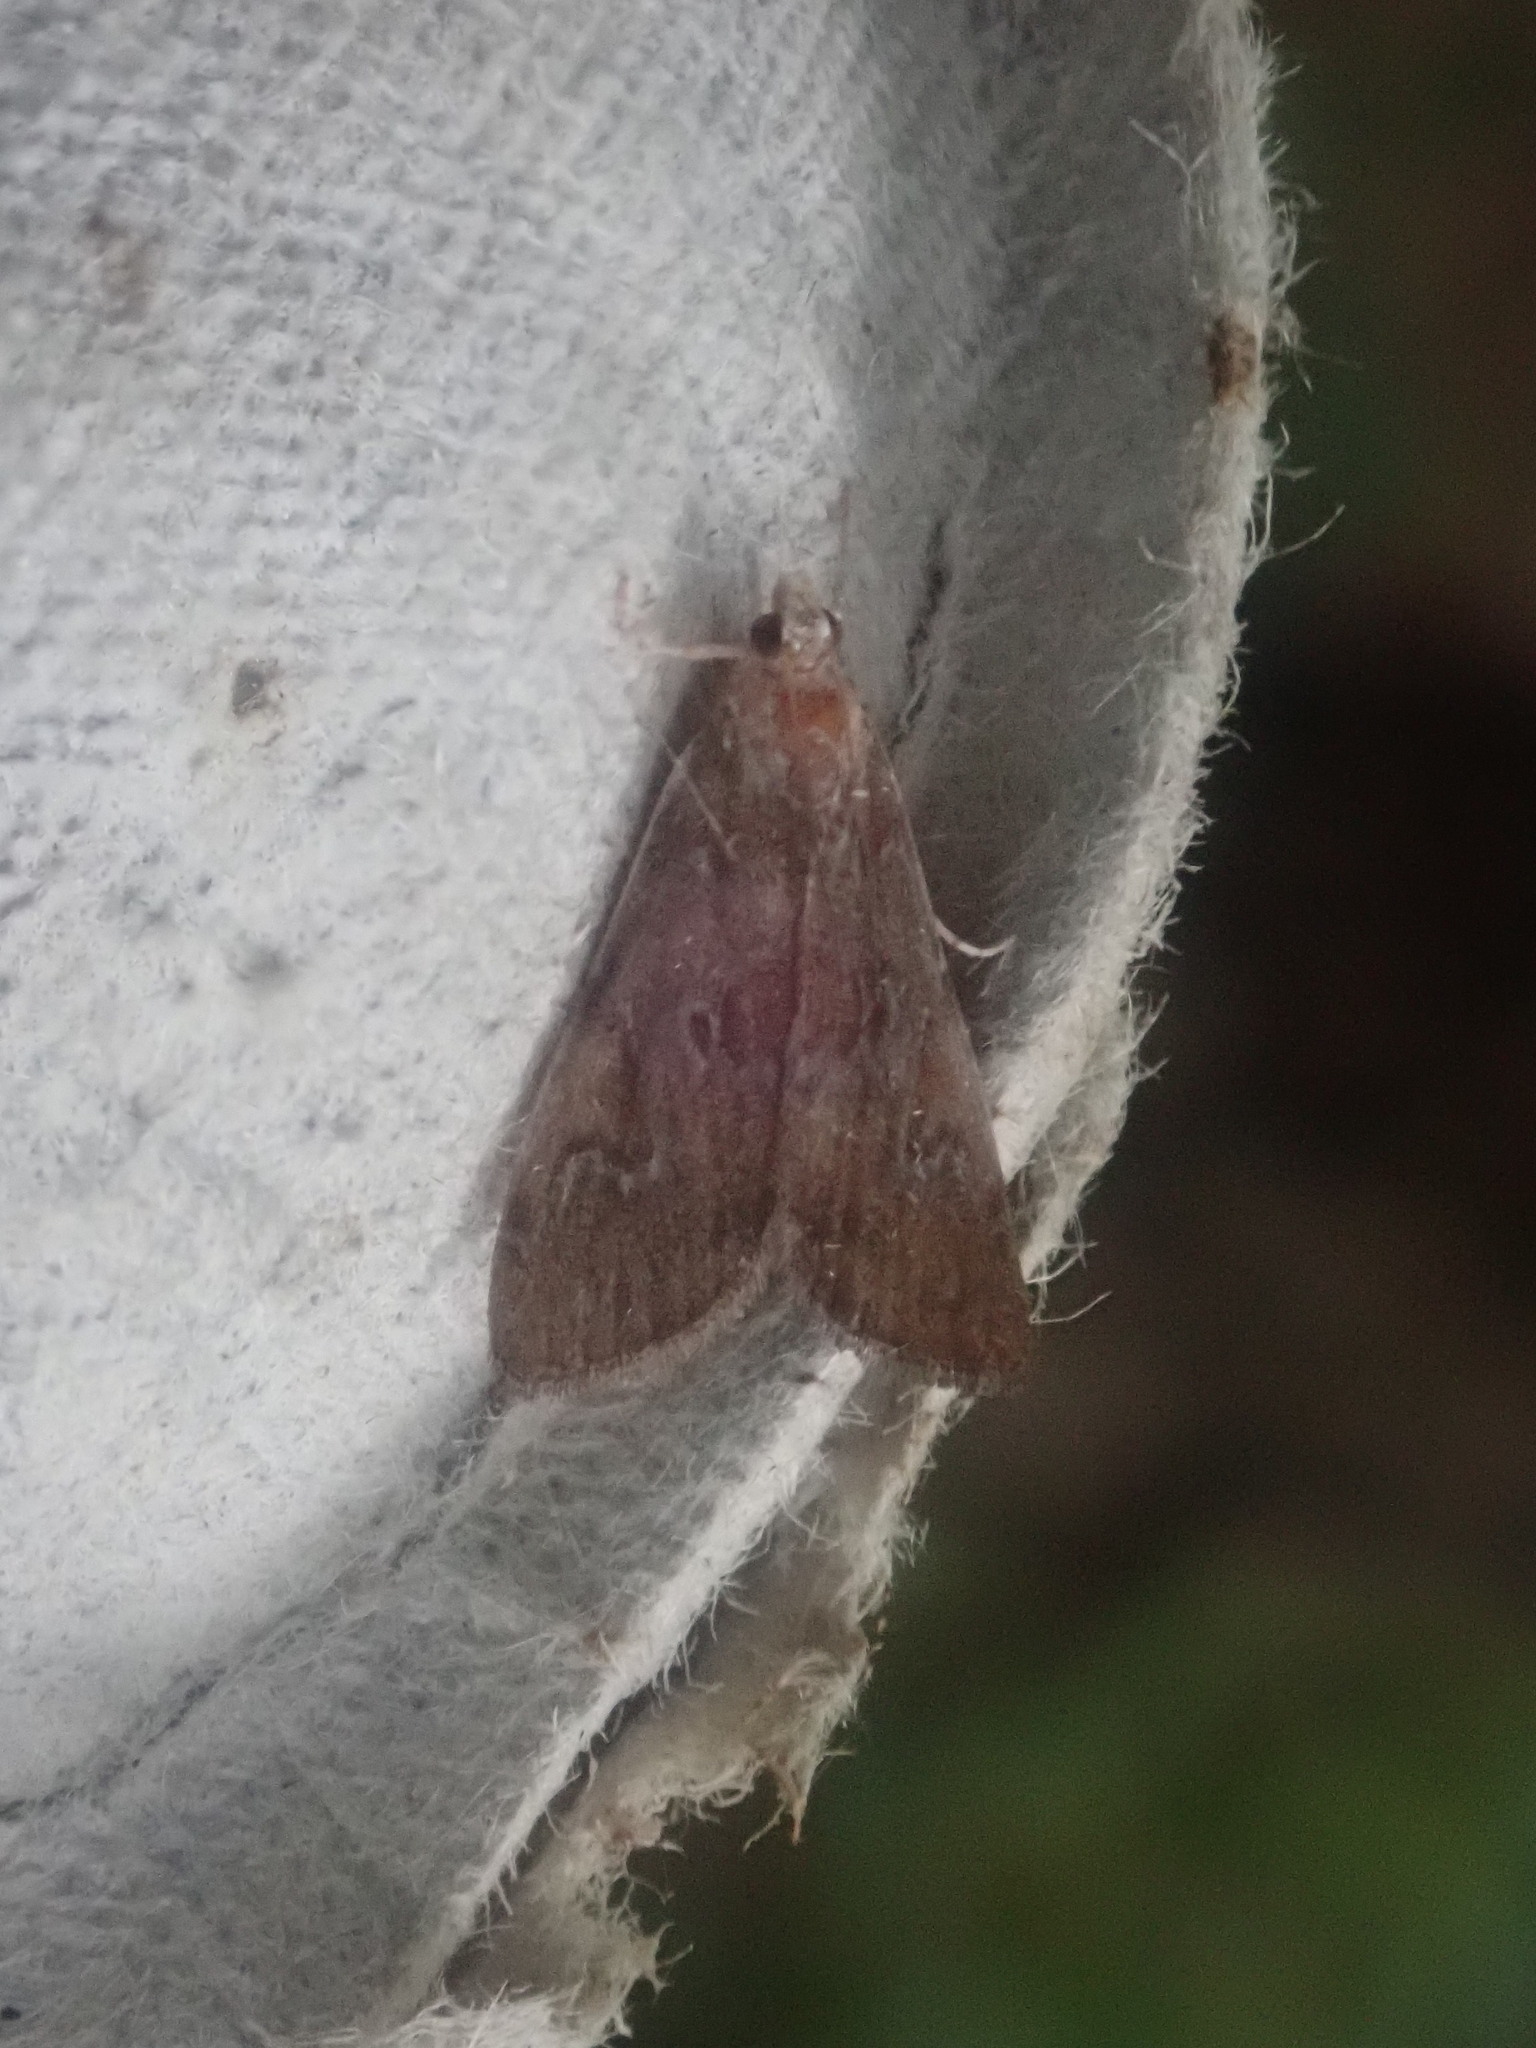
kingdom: Animalia
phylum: Arthropoda
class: Insecta
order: Lepidoptera
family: Crambidae
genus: Elophila
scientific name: Elophila gyralis
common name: Waterlily borer moth
